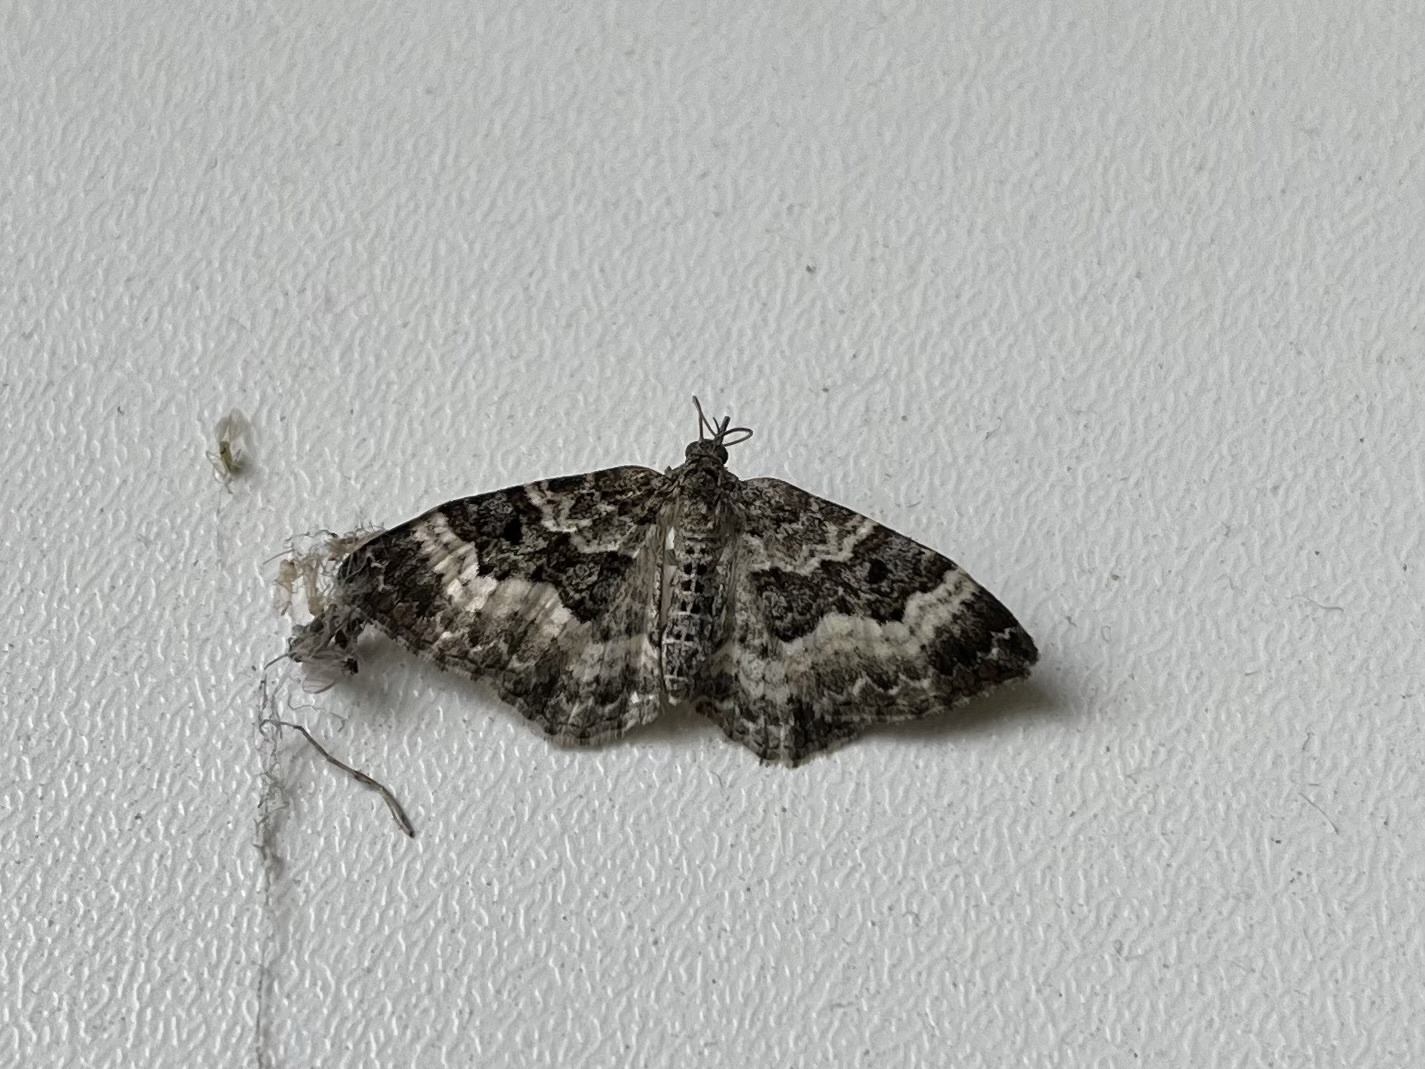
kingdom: Animalia
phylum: Arthropoda
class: Insecta
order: Lepidoptera
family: Geometridae
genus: Epirrhoe
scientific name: Epirrhoe alternata
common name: Common carpet
